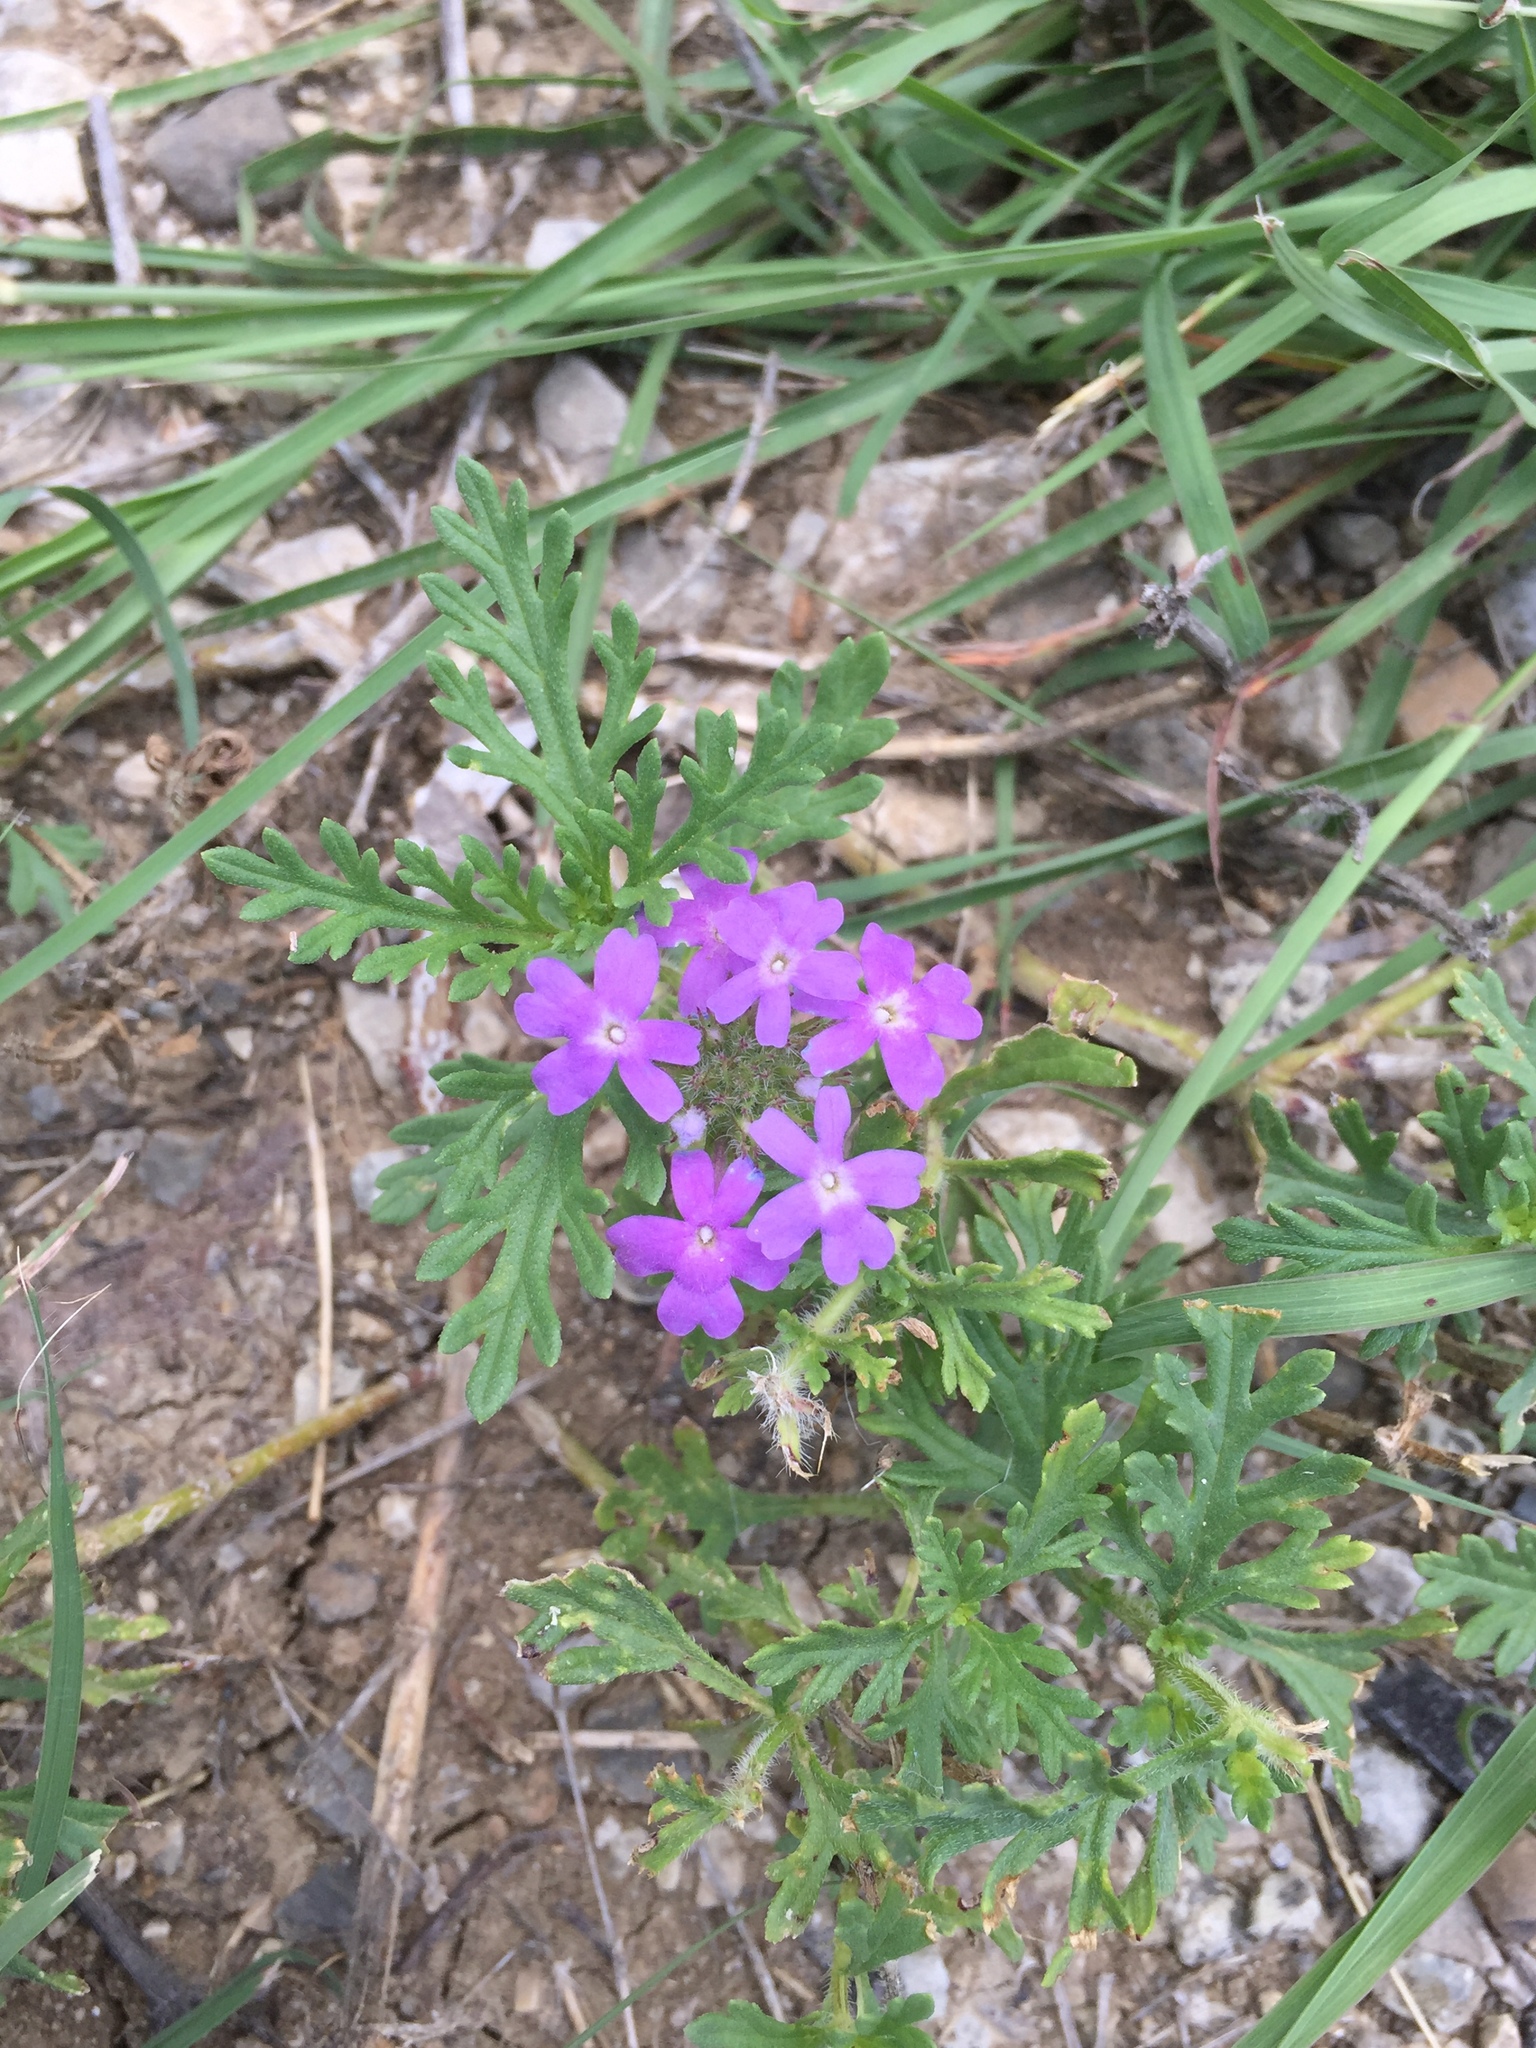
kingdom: Plantae
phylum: Tracheophyta
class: Magnoliopsida
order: Lamiales
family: Verbenaceae
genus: Verbena
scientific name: Verbena bipinnatifida
